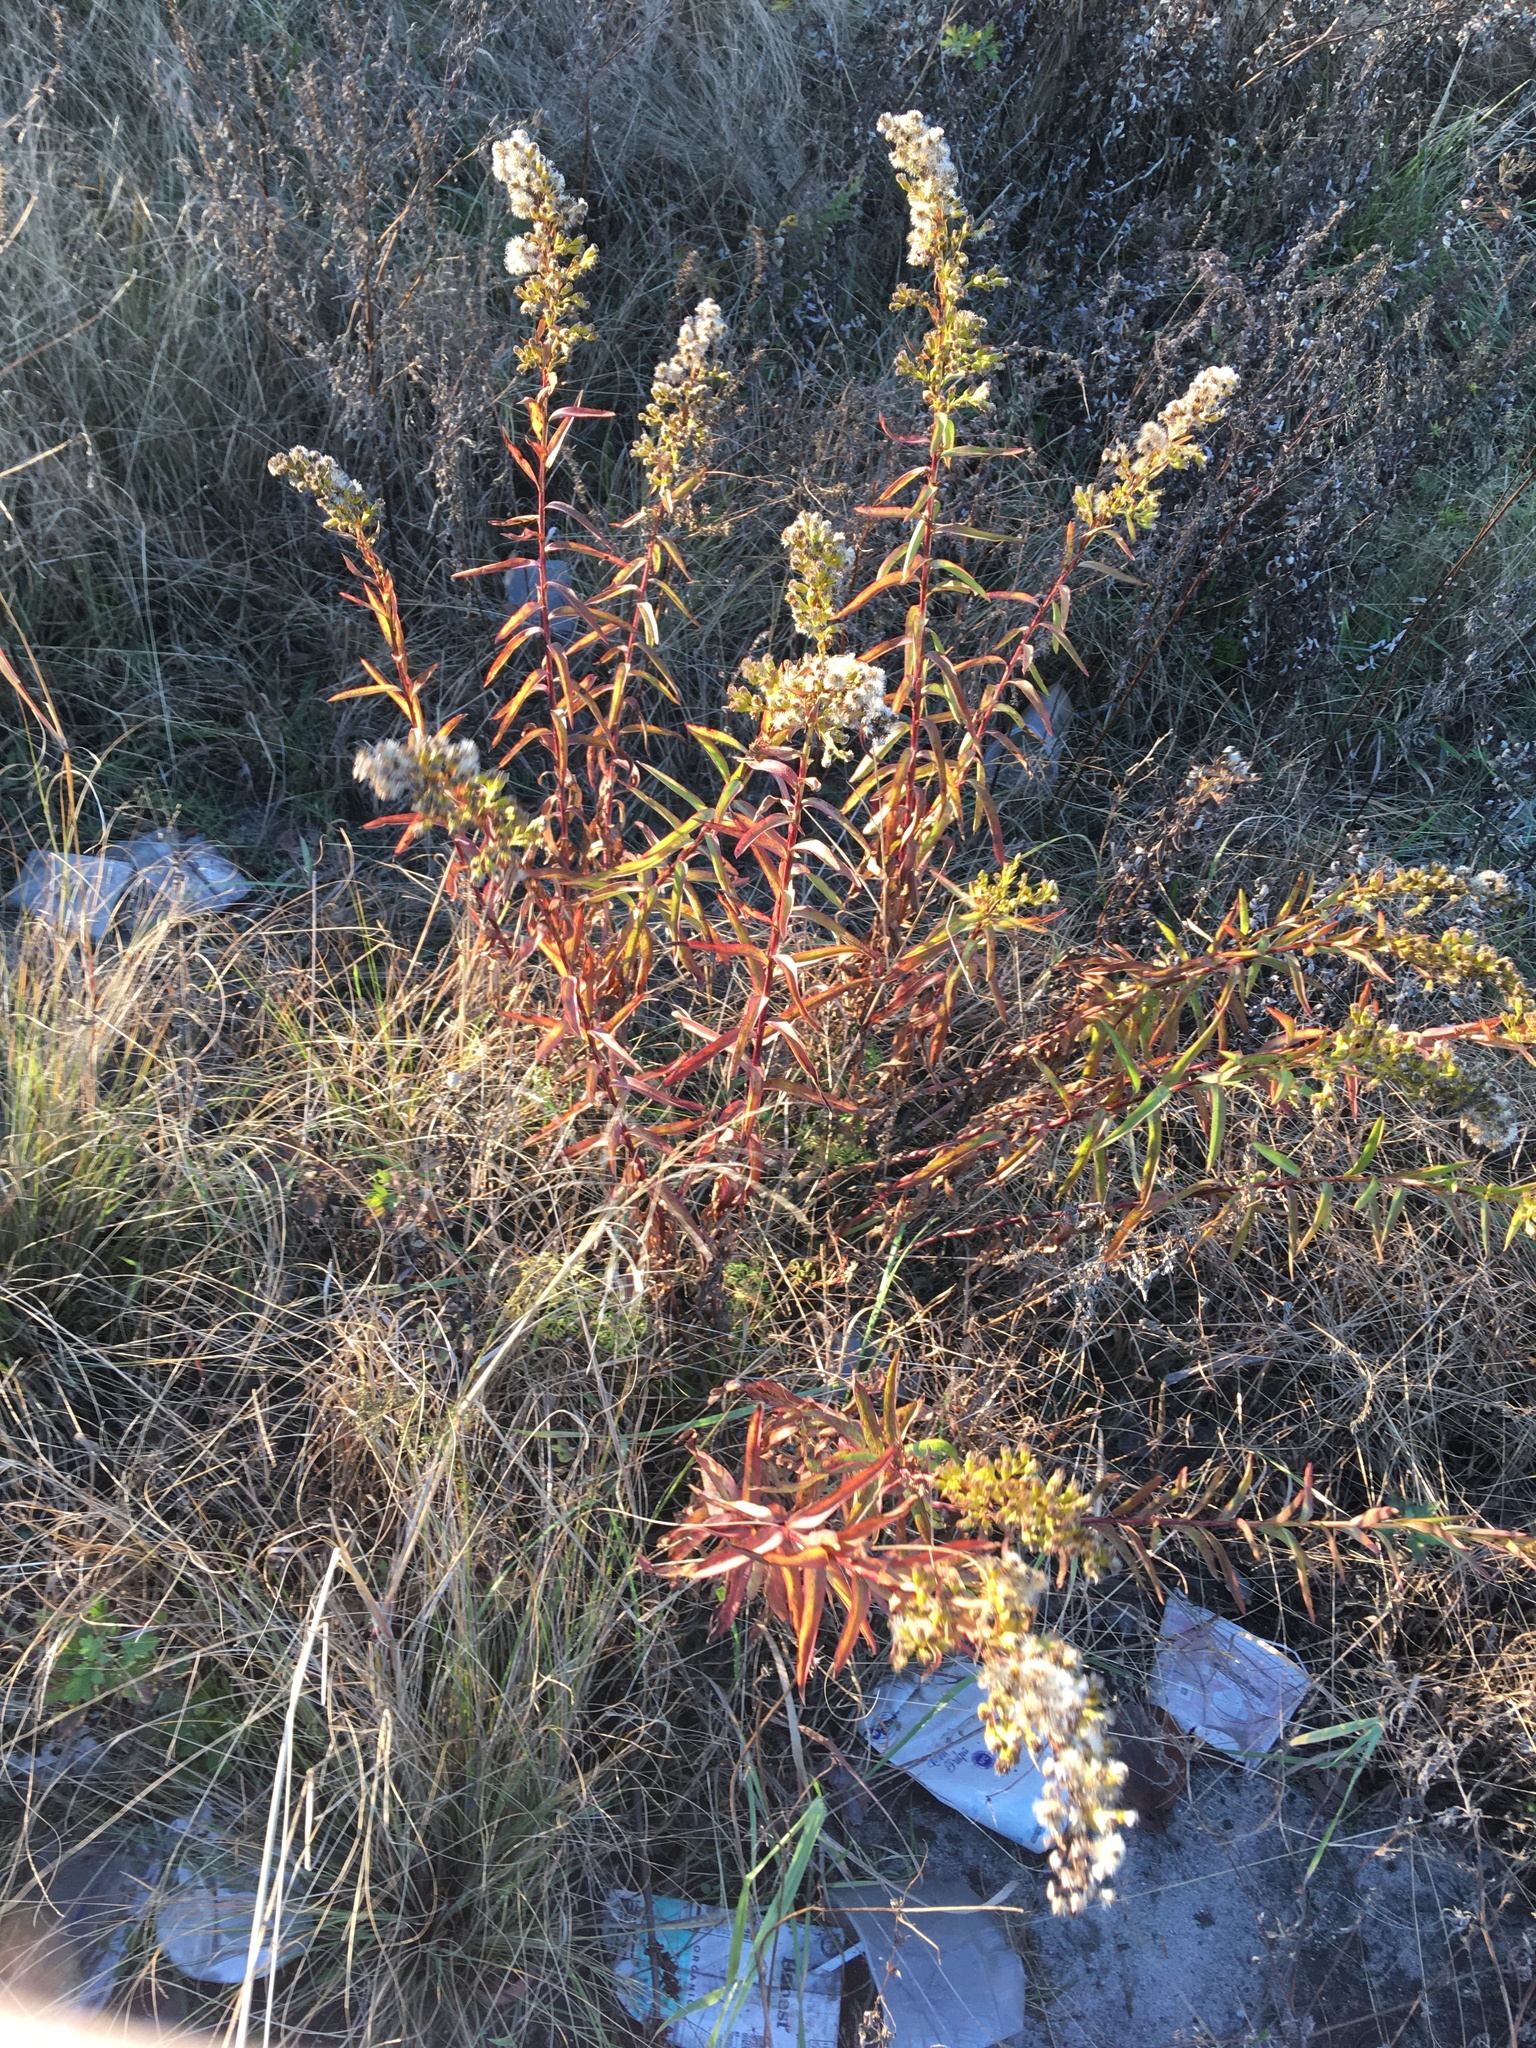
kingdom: Plantae
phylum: Tracheophyta
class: Magnoliopsida
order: Asterales
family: Asteraceae
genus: Solidago
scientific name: Solidago sempervirens
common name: Salt-marsh goldenrod
